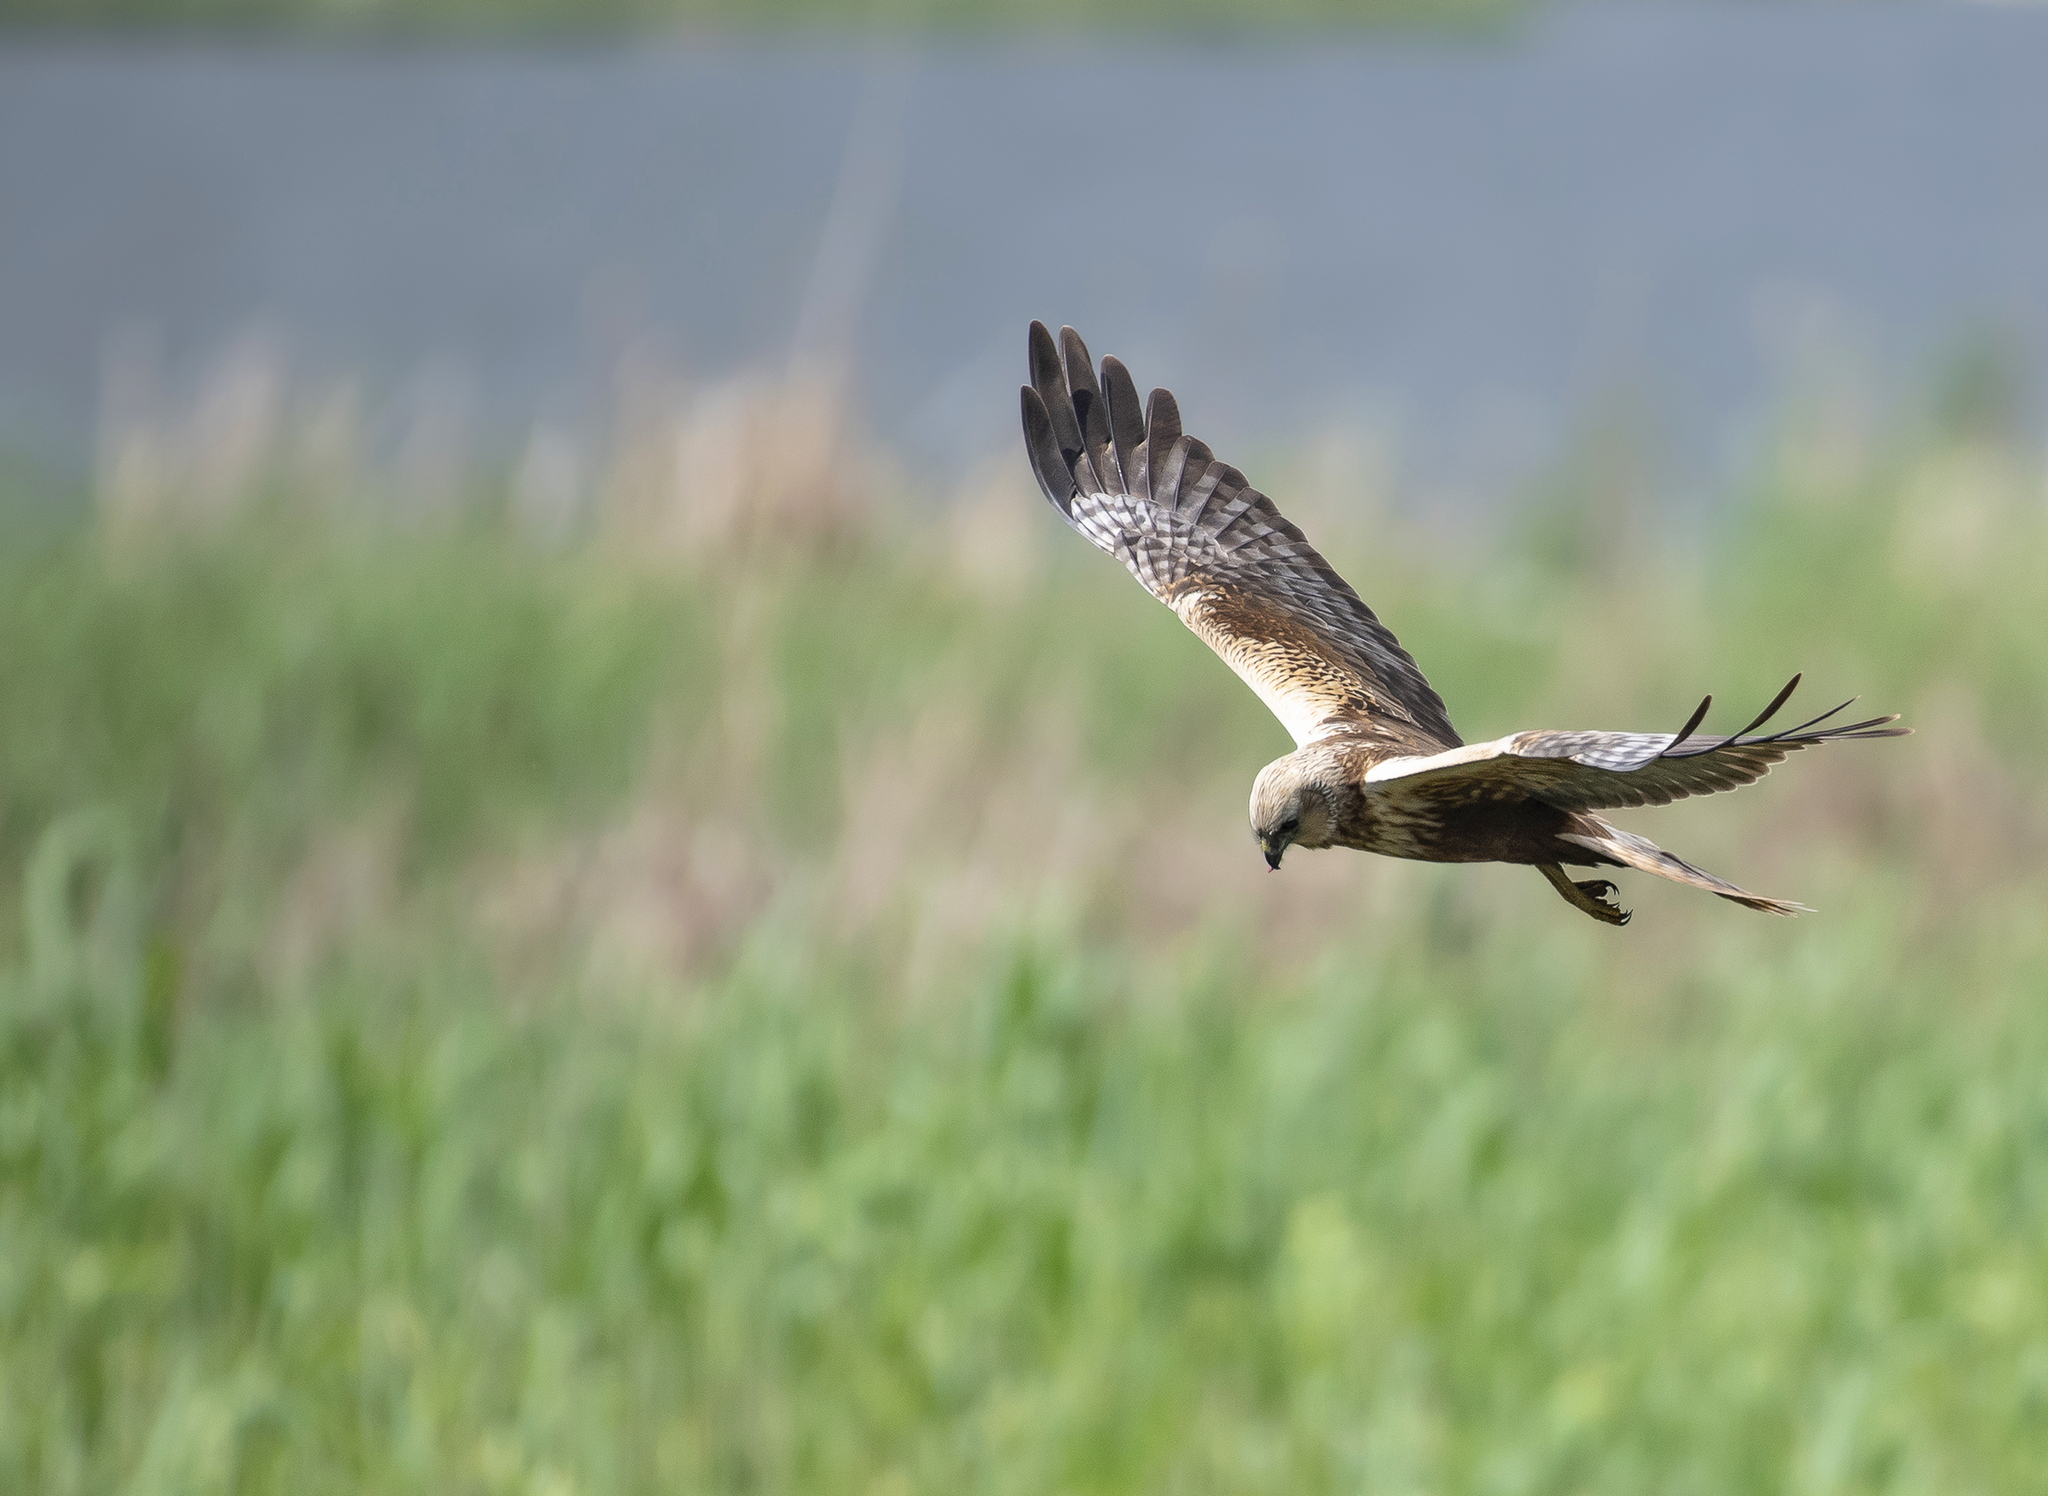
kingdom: Animalia
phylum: Chordata
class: Aves
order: Accipitriformes
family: Accipitridae
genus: Circus
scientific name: Circus aeruginosus
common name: Western marsh harrier
